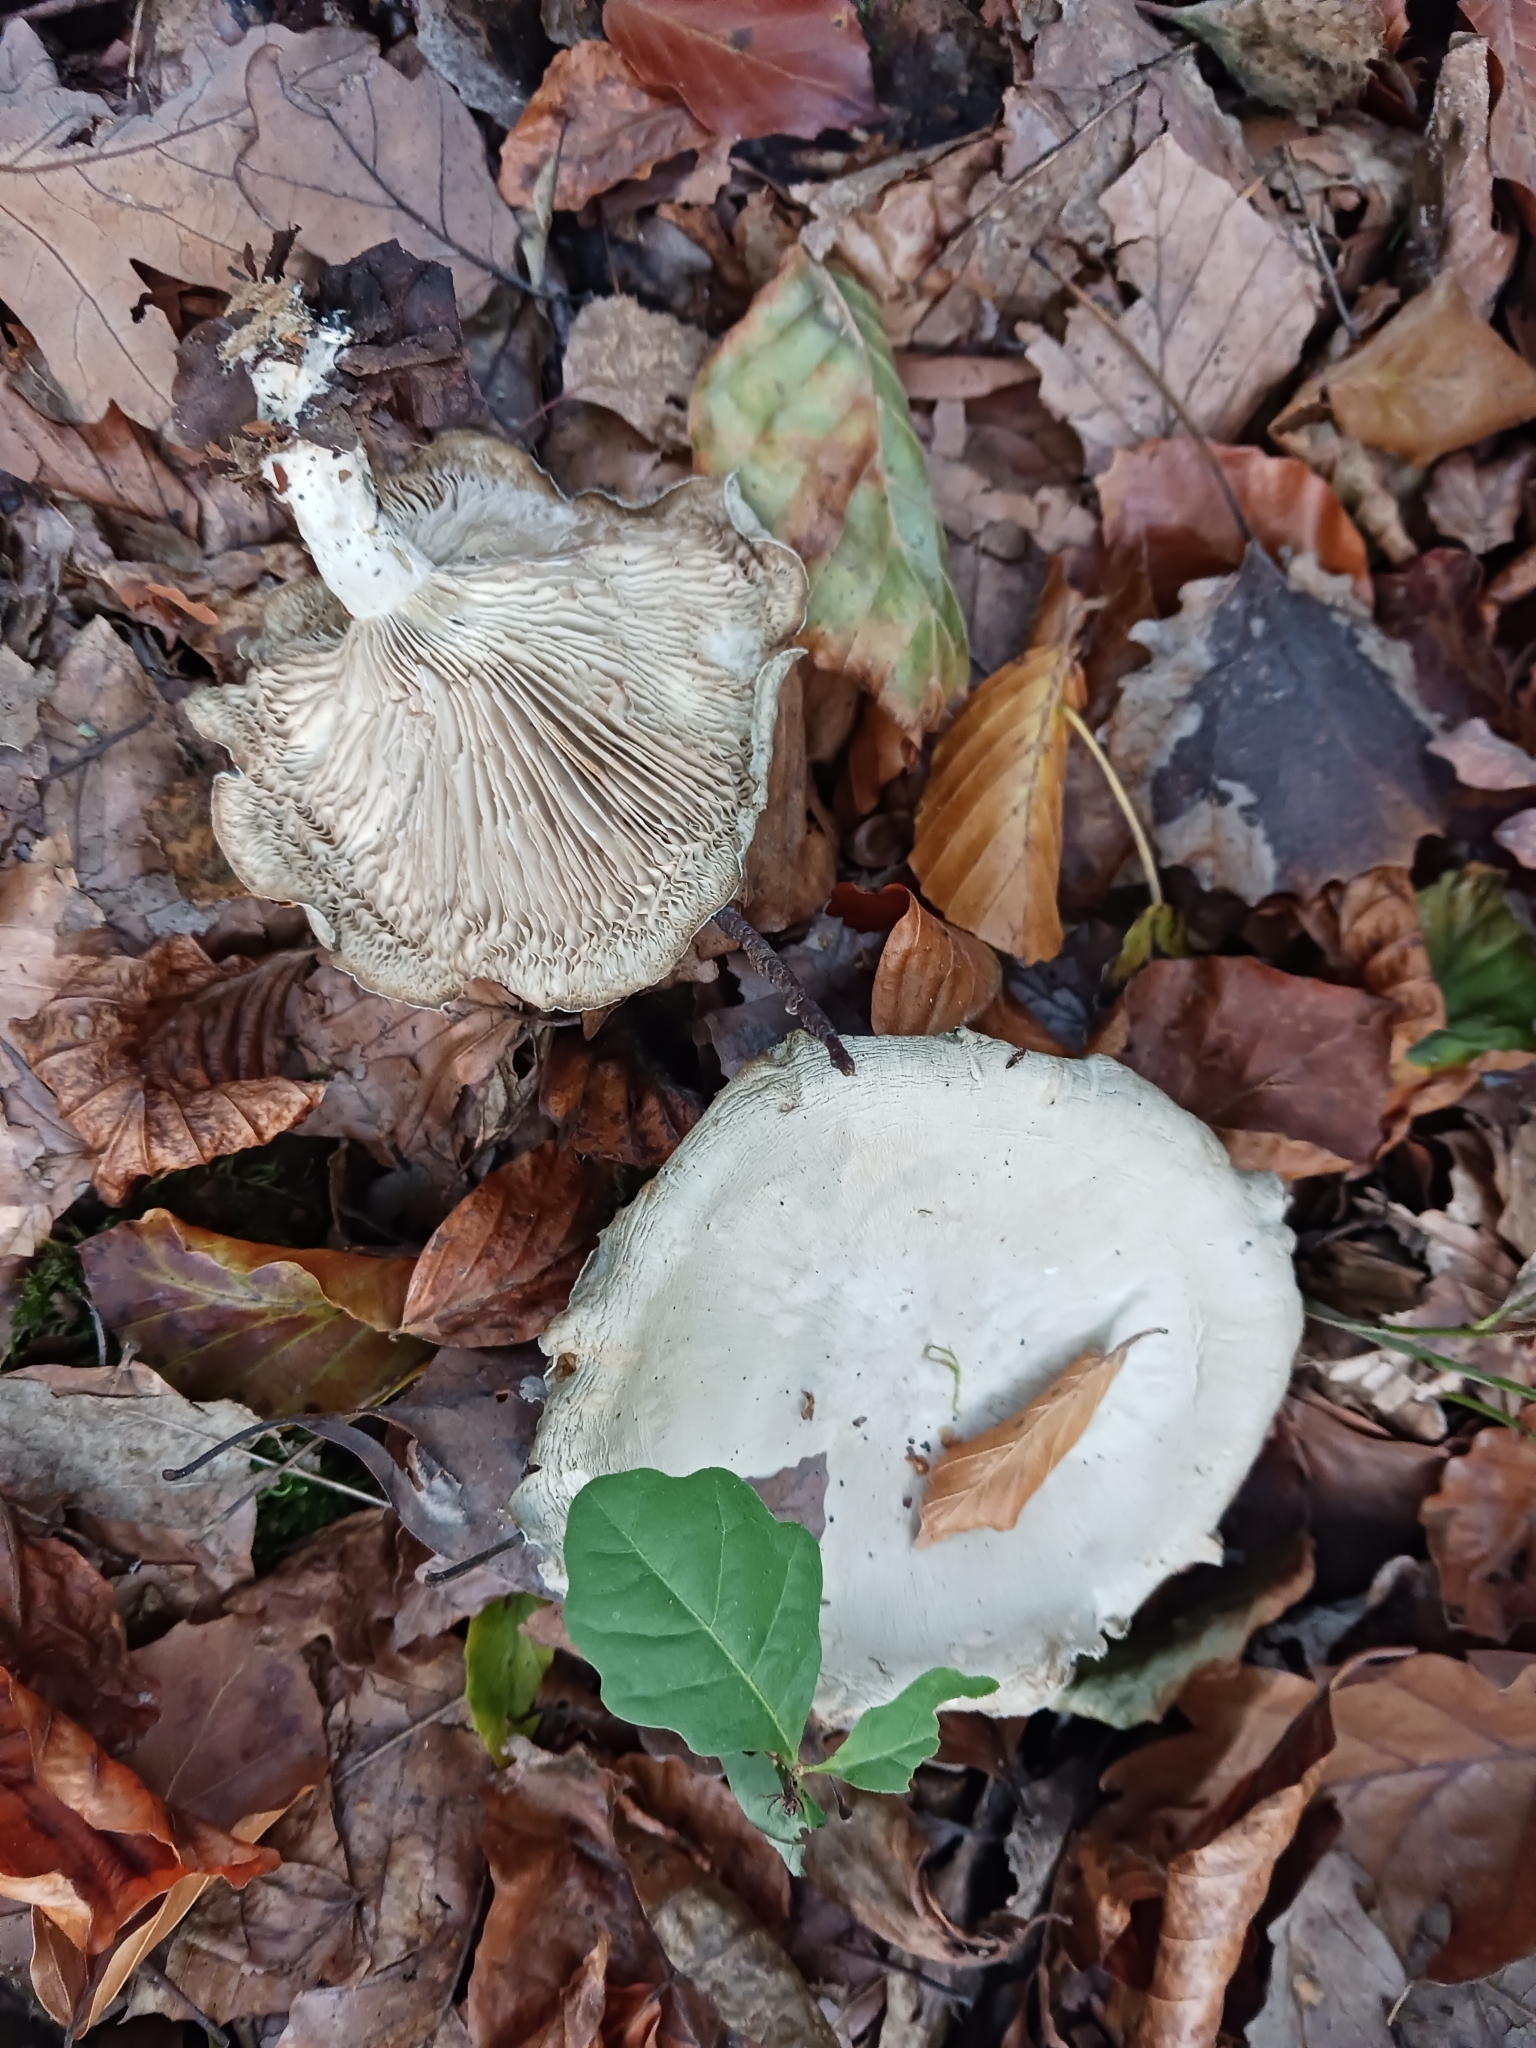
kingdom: Fungi
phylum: Basidiomycota
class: Agaricomycetes
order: Agaricales
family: Tricholomataceae
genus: Collybia
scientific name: Collybia
